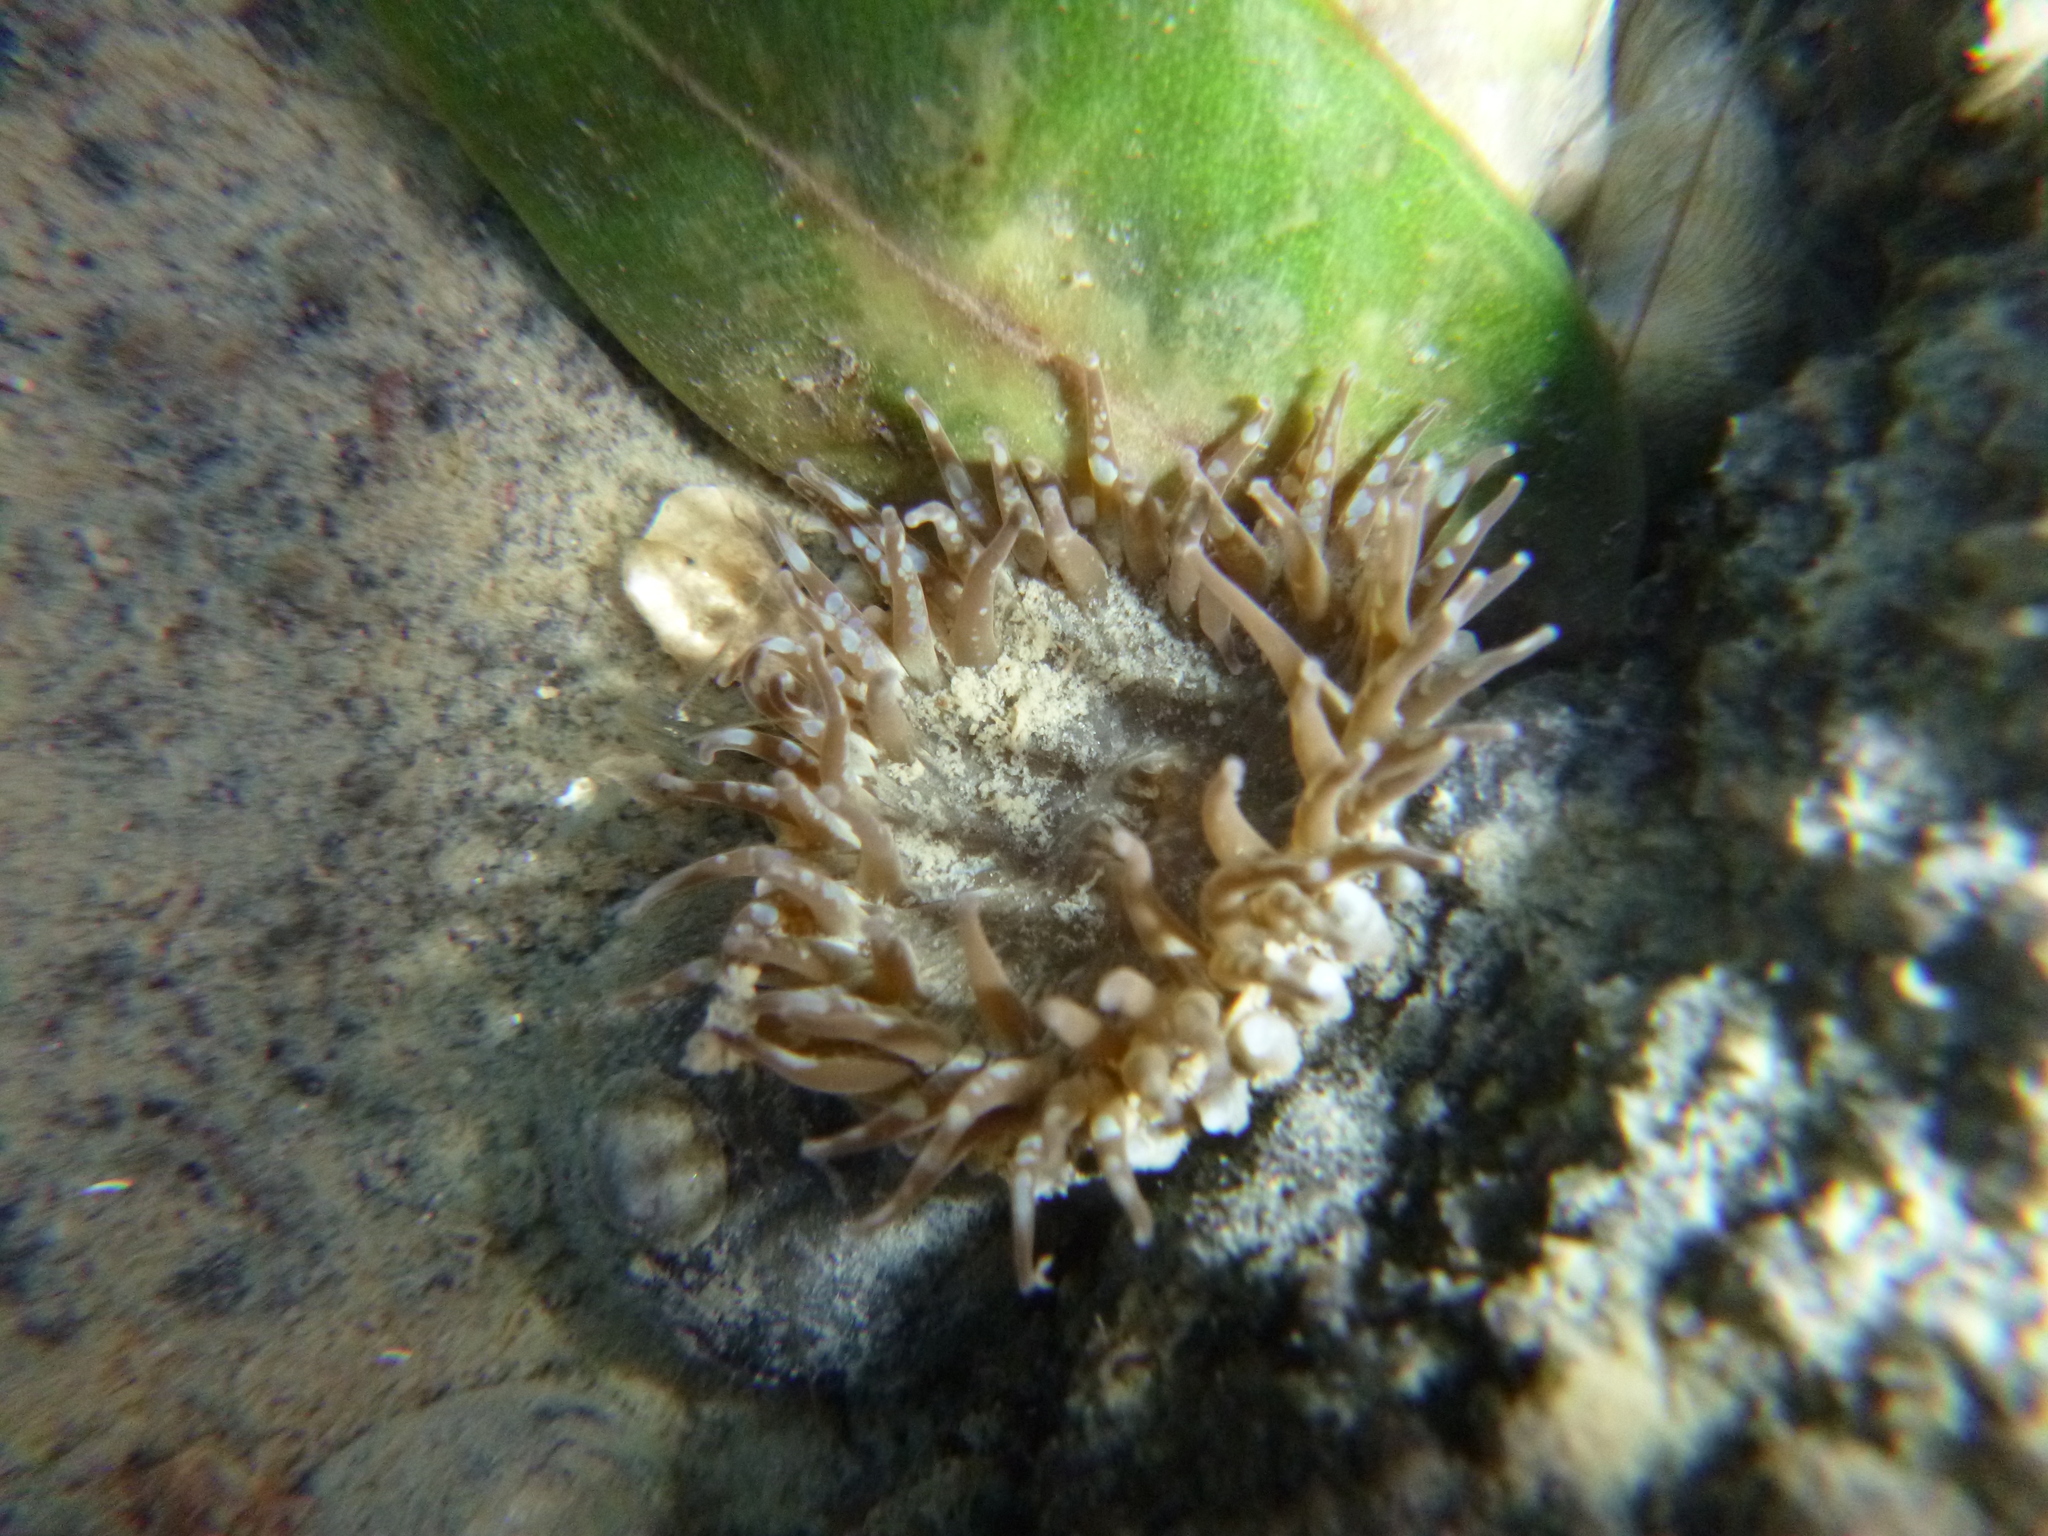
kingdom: Animalia
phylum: Cnidaria
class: Anthozoa
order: Actiniaria
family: Actiniidae
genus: Anthopleura
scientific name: Anthopleura hermaphroditica
